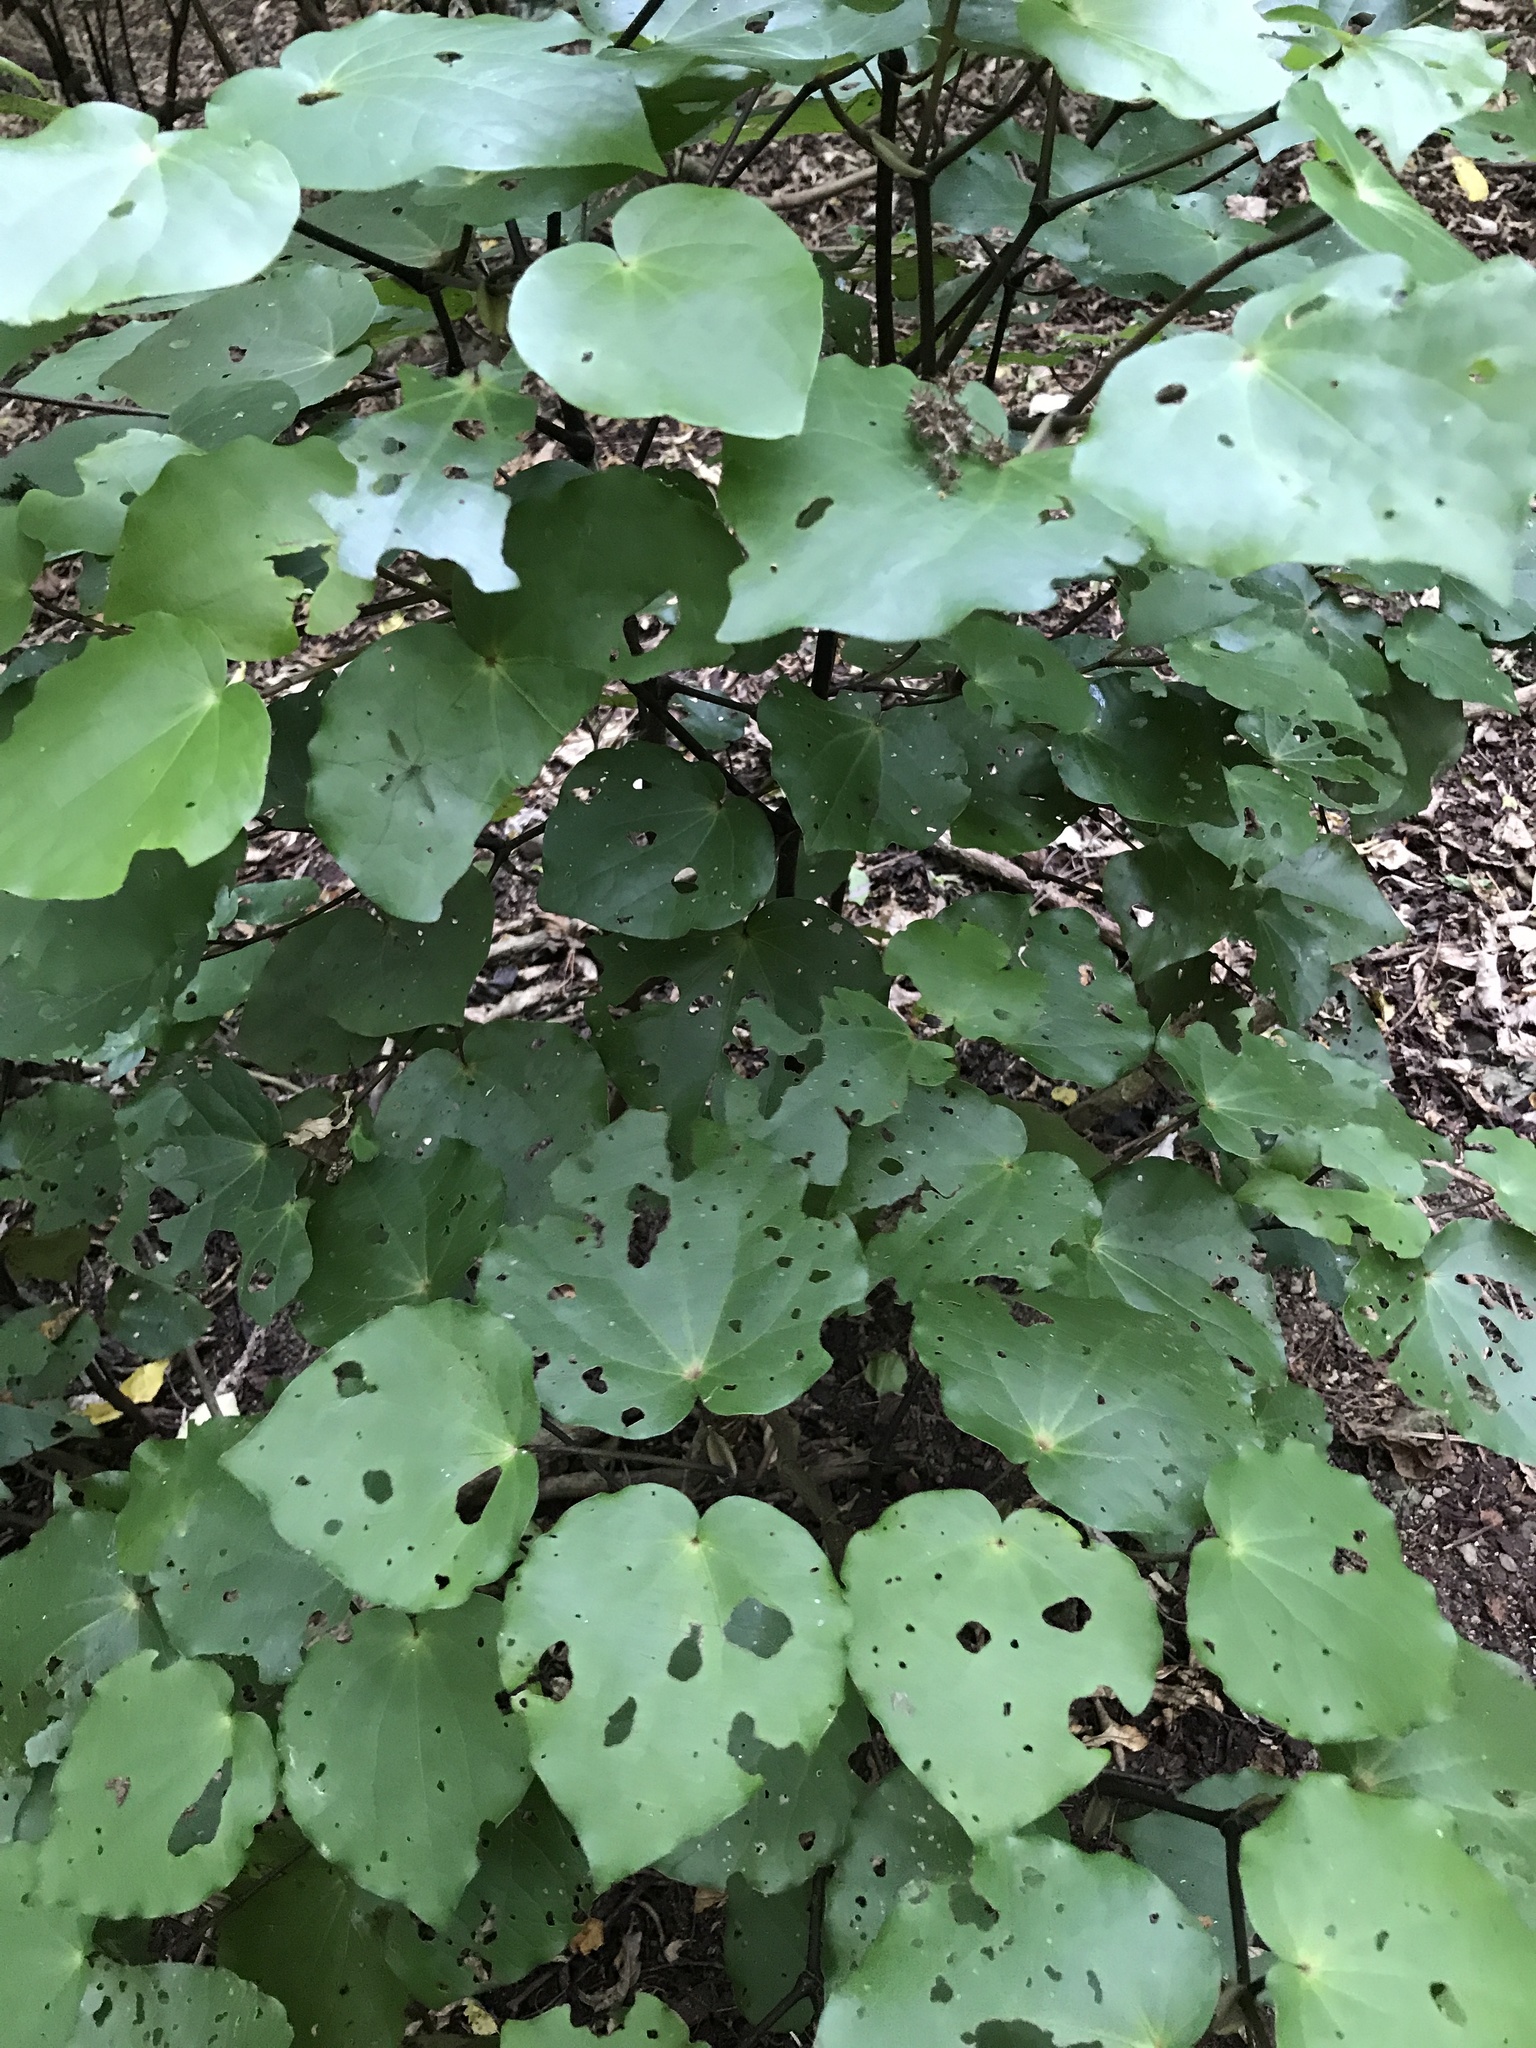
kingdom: Plantae
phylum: Tracheophyta
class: Magnoliopsida
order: Piperales
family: Piperaceae
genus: Macropiper
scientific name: Macropiper excelsum
